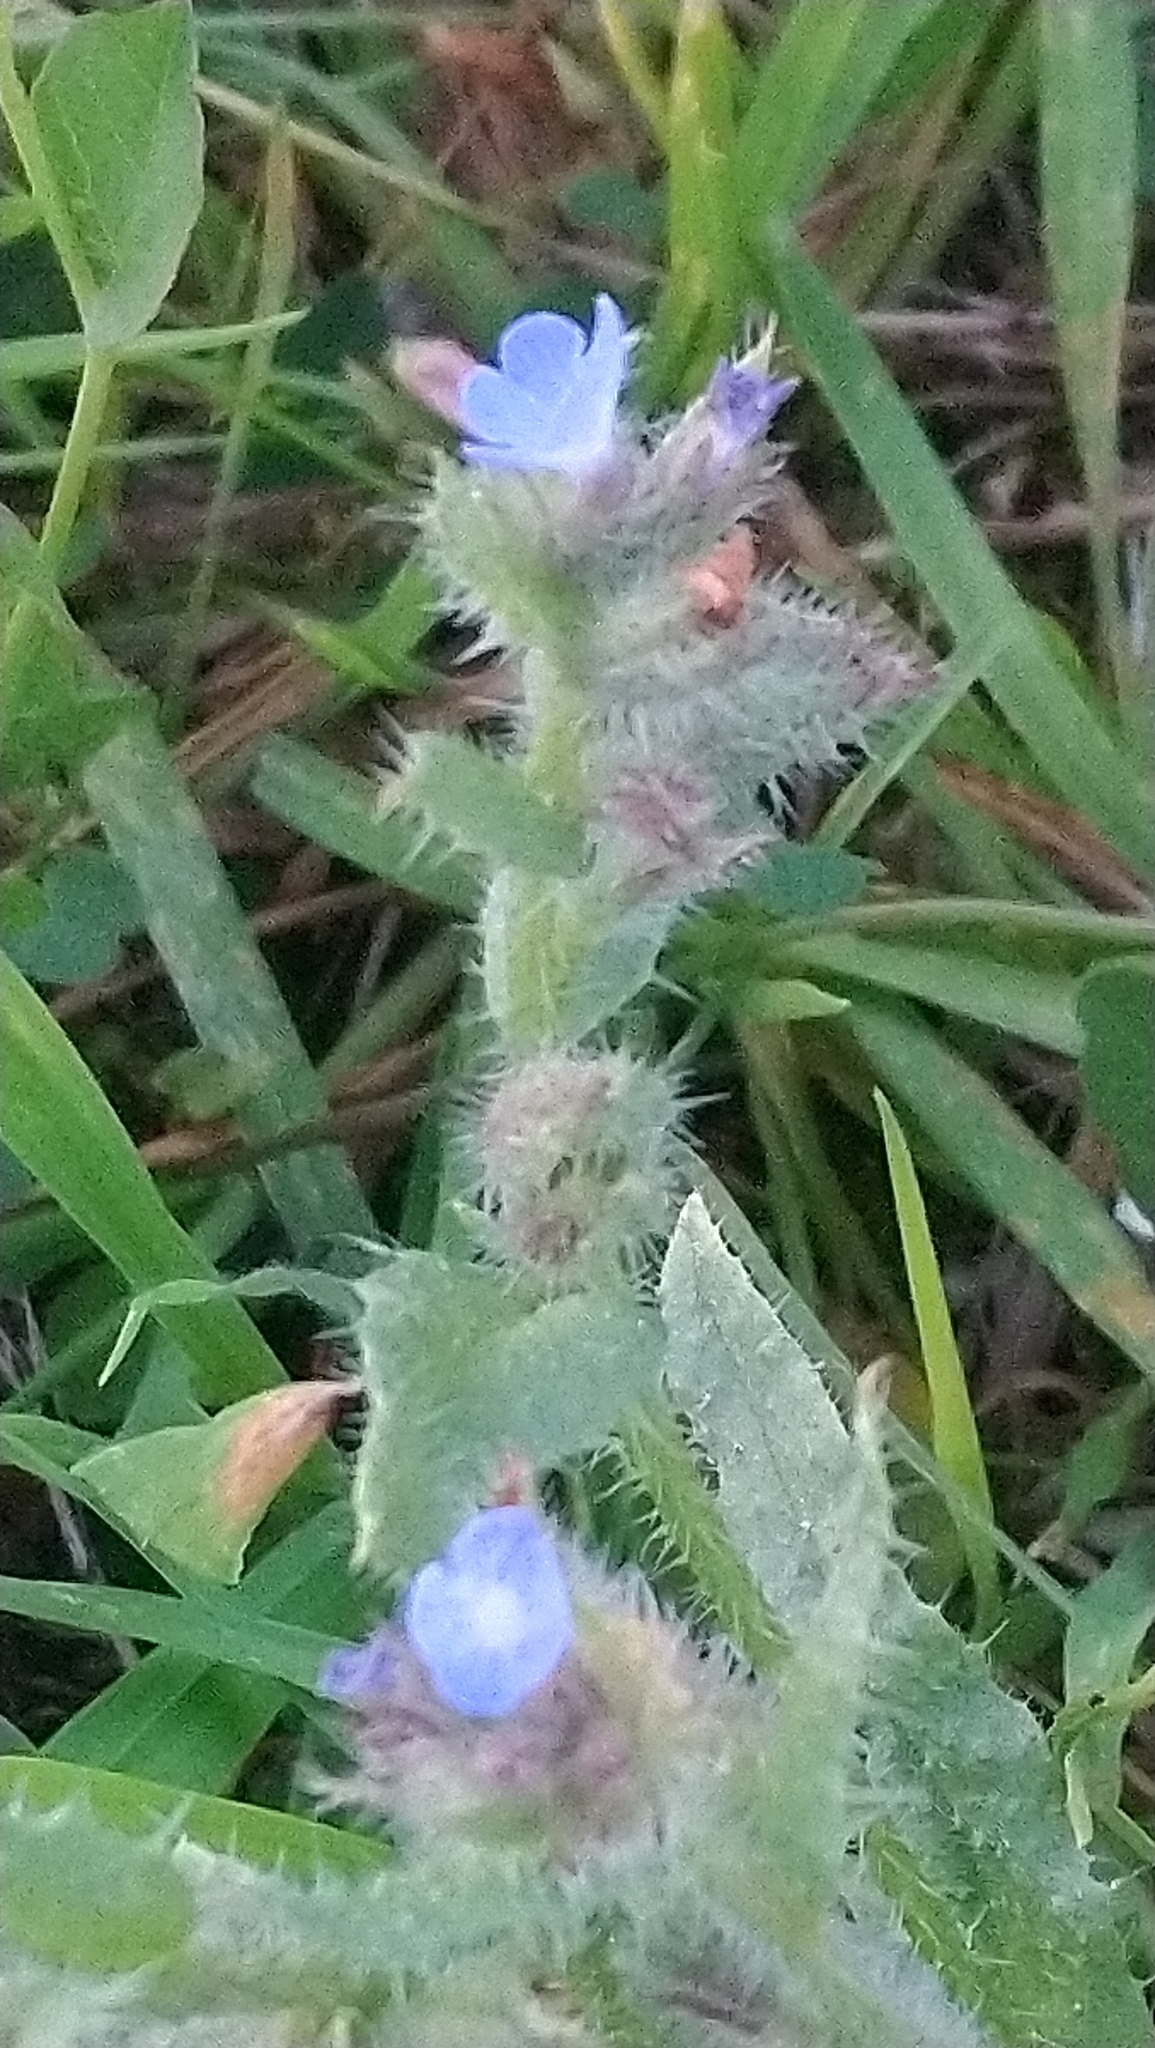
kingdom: Plantae
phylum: Tracheophyta
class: Magnoliopsida
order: Boraginales
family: Boraginaceae
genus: Lycopsis
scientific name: Lycopsis arvensis
